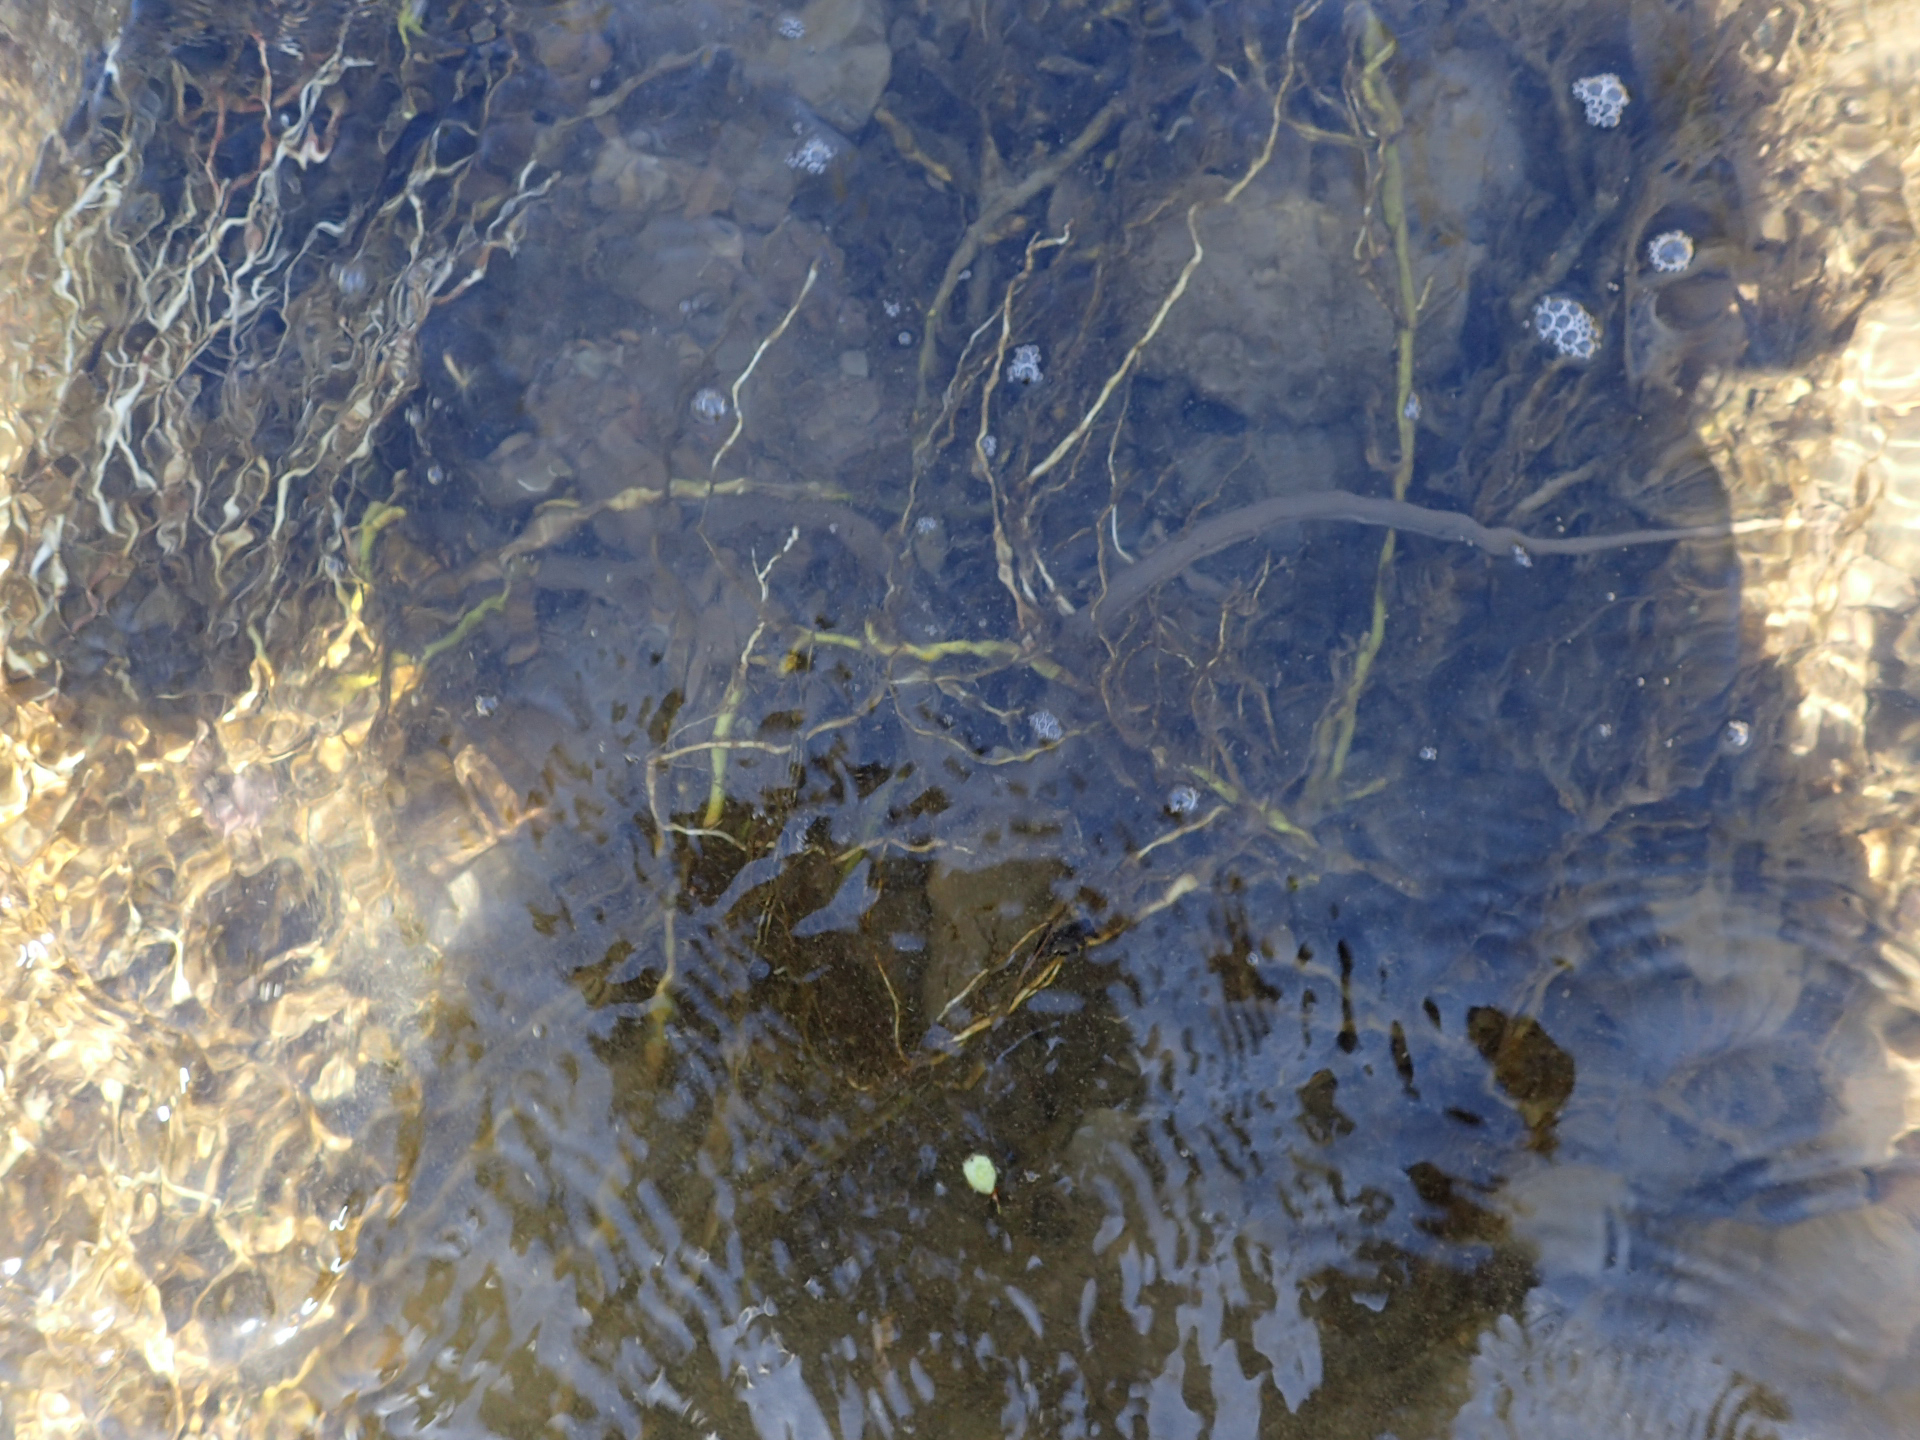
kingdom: Animalia
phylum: Chordata
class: Squamata
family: Colubridae
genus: Regina
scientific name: Regina septemvittata
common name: Queen snake
